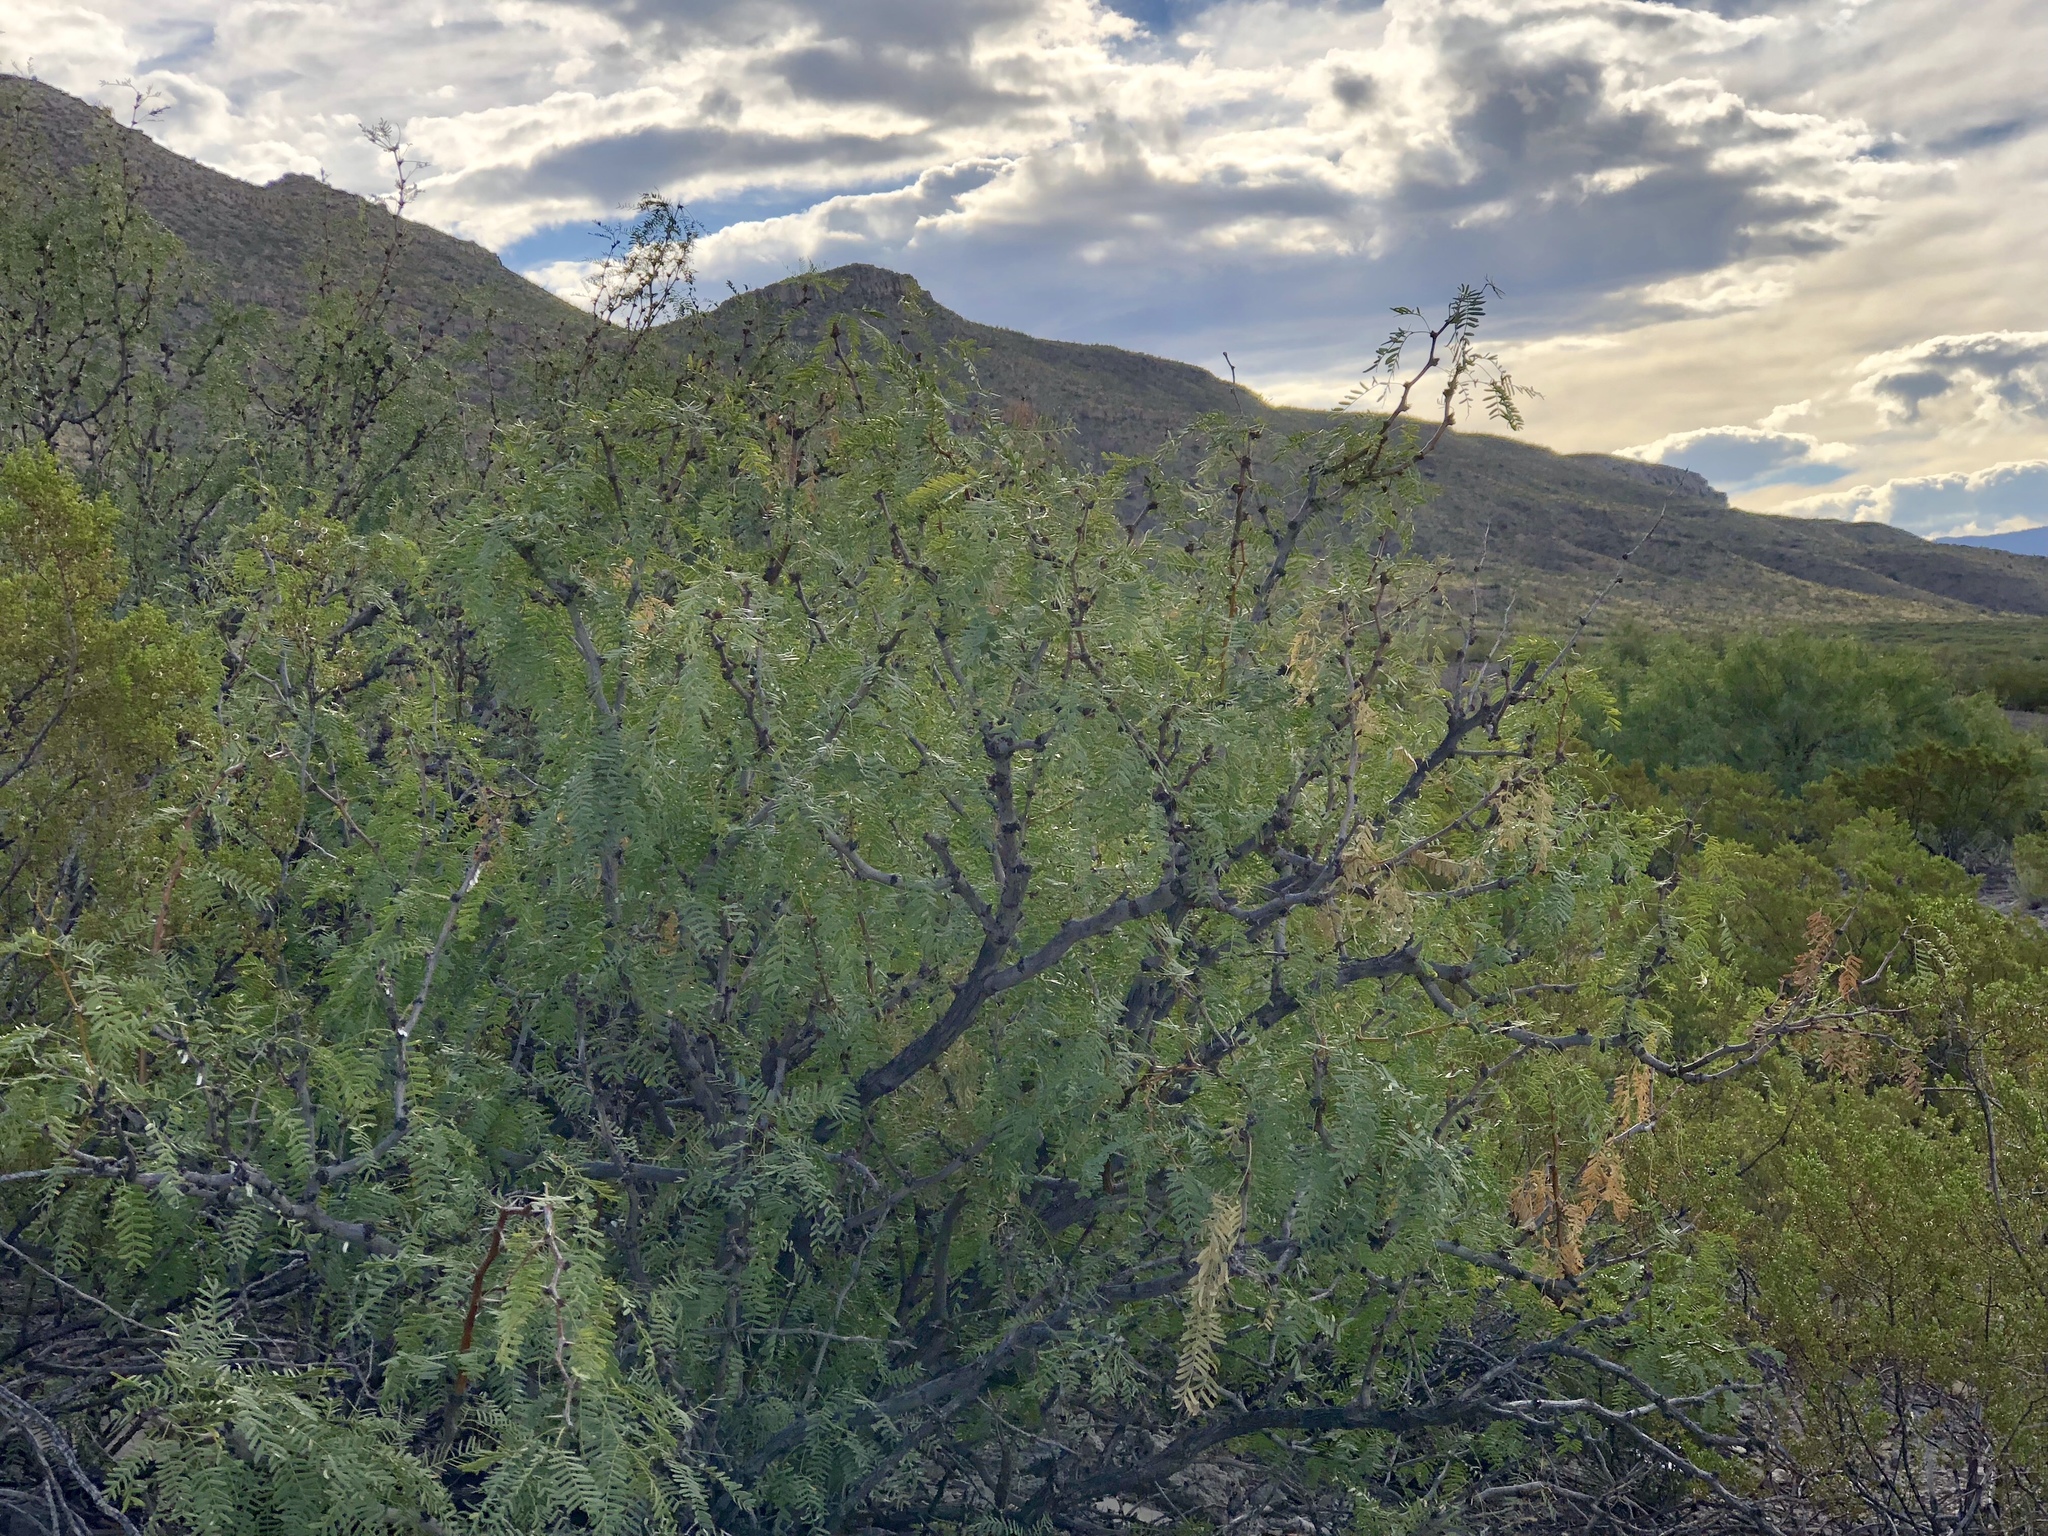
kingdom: Plantae
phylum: Tracheophyta
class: Magnoliopsida
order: Fabales
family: Fabaceae
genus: Prosopis
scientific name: Prosopis glandulosa
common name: Honey mesquite
